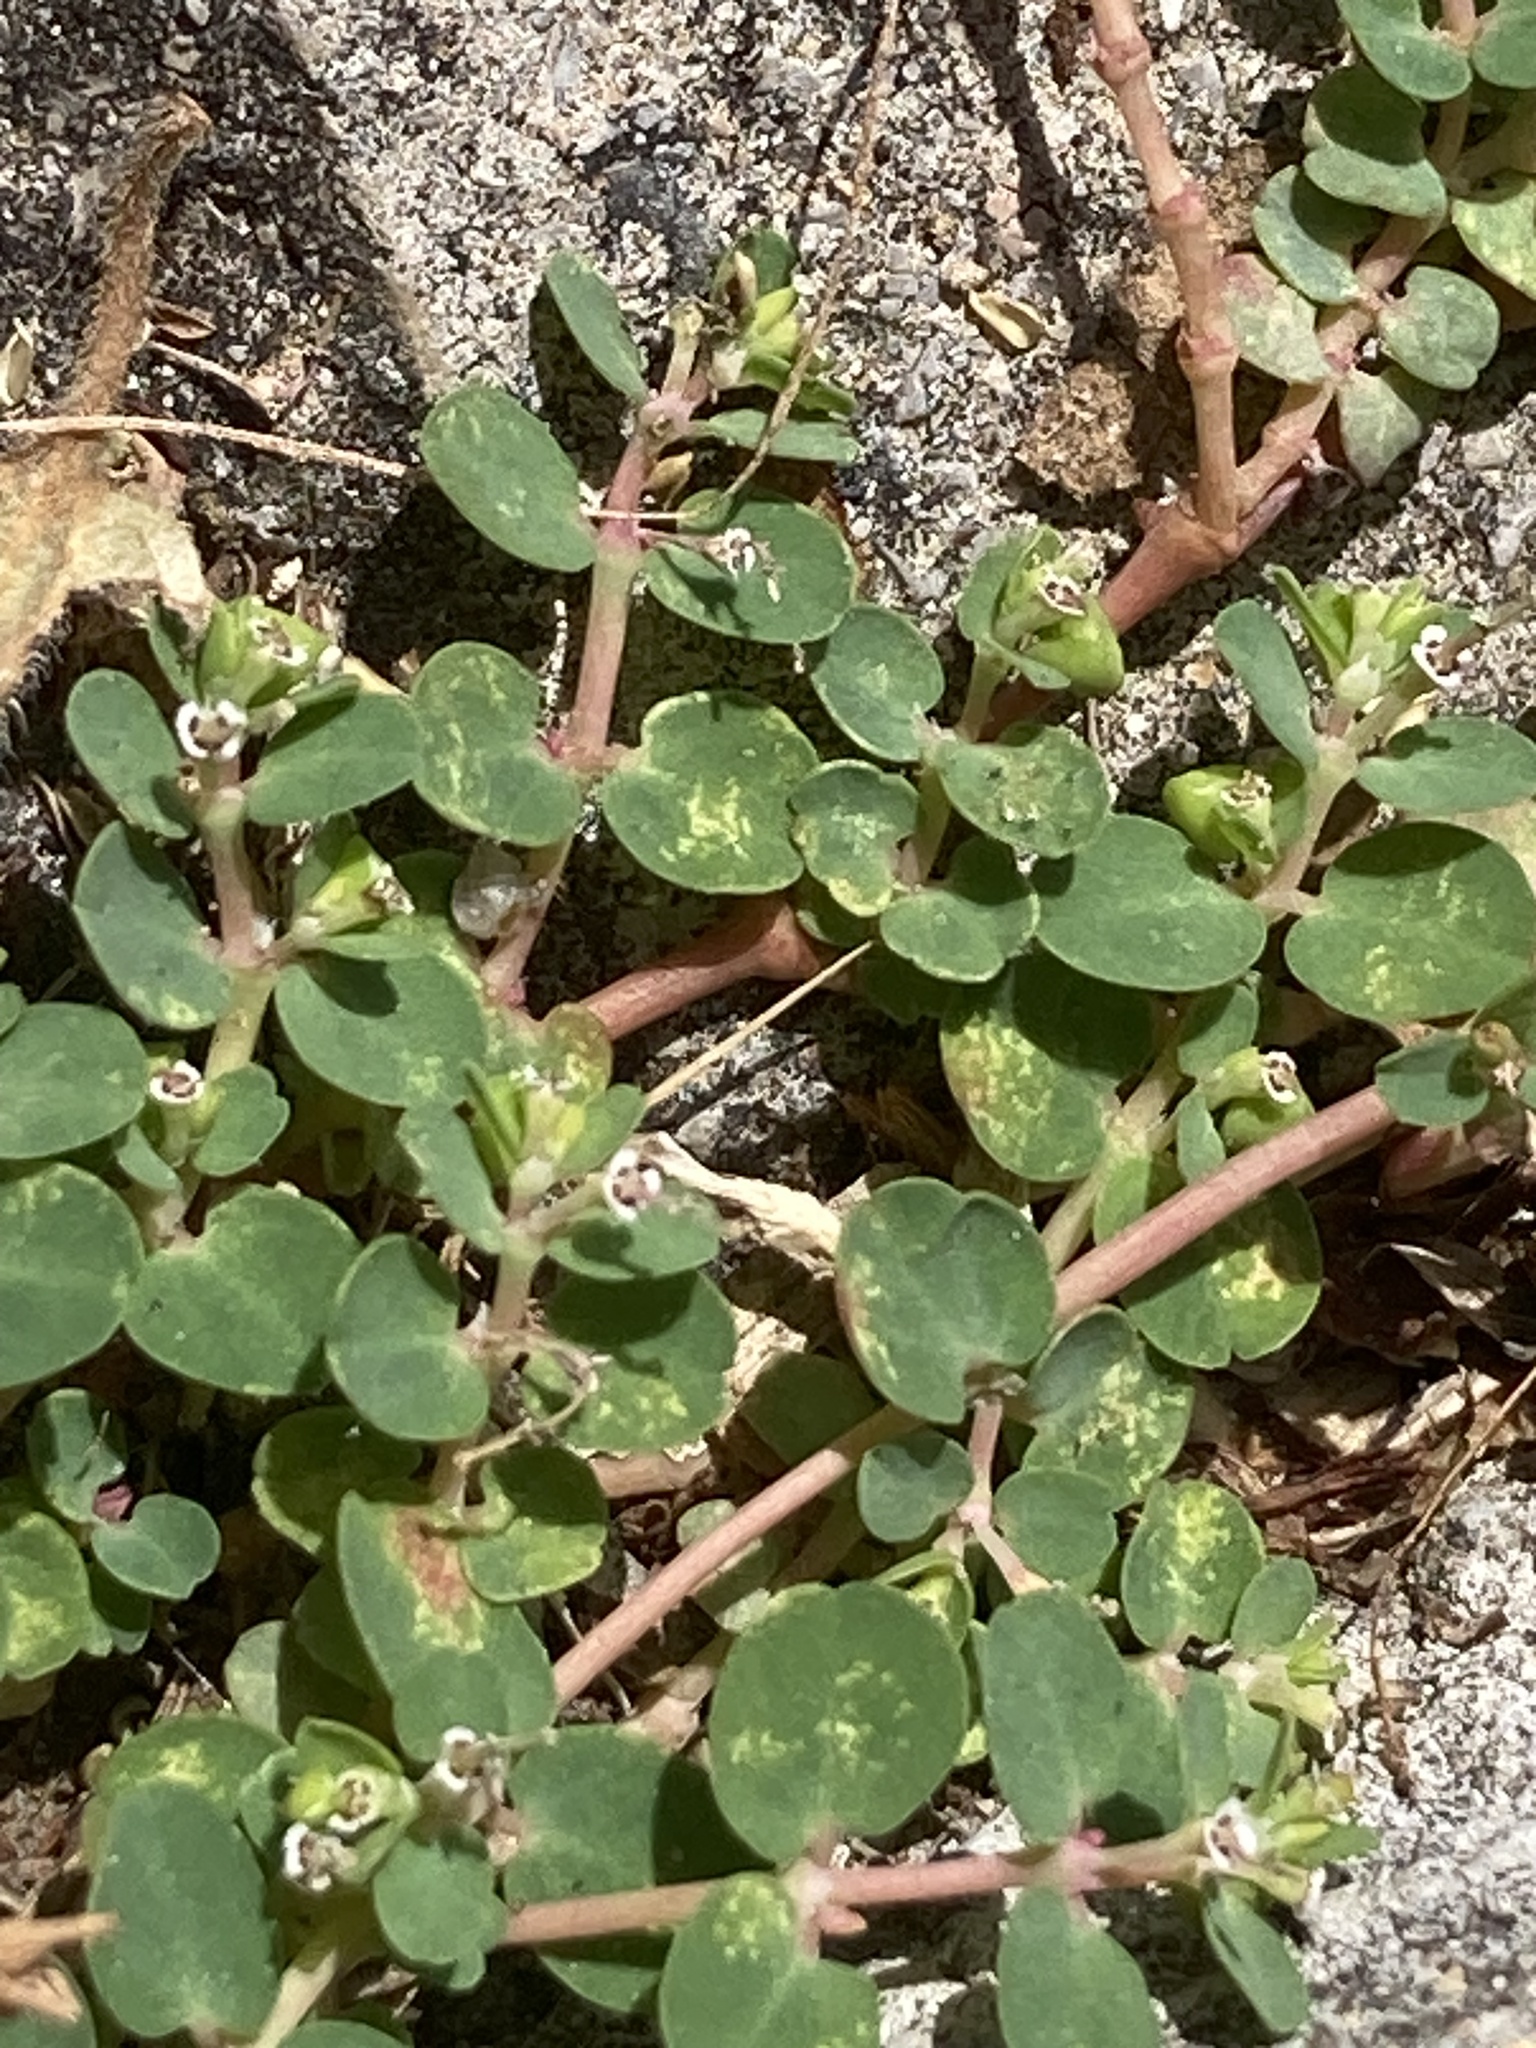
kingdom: Plantae
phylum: Tracheophyta
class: Magnoliopsida
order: Malpighiales
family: Euphorbiaceae
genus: Euphorbia
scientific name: Euphorbia serpens
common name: Matted sandmat
